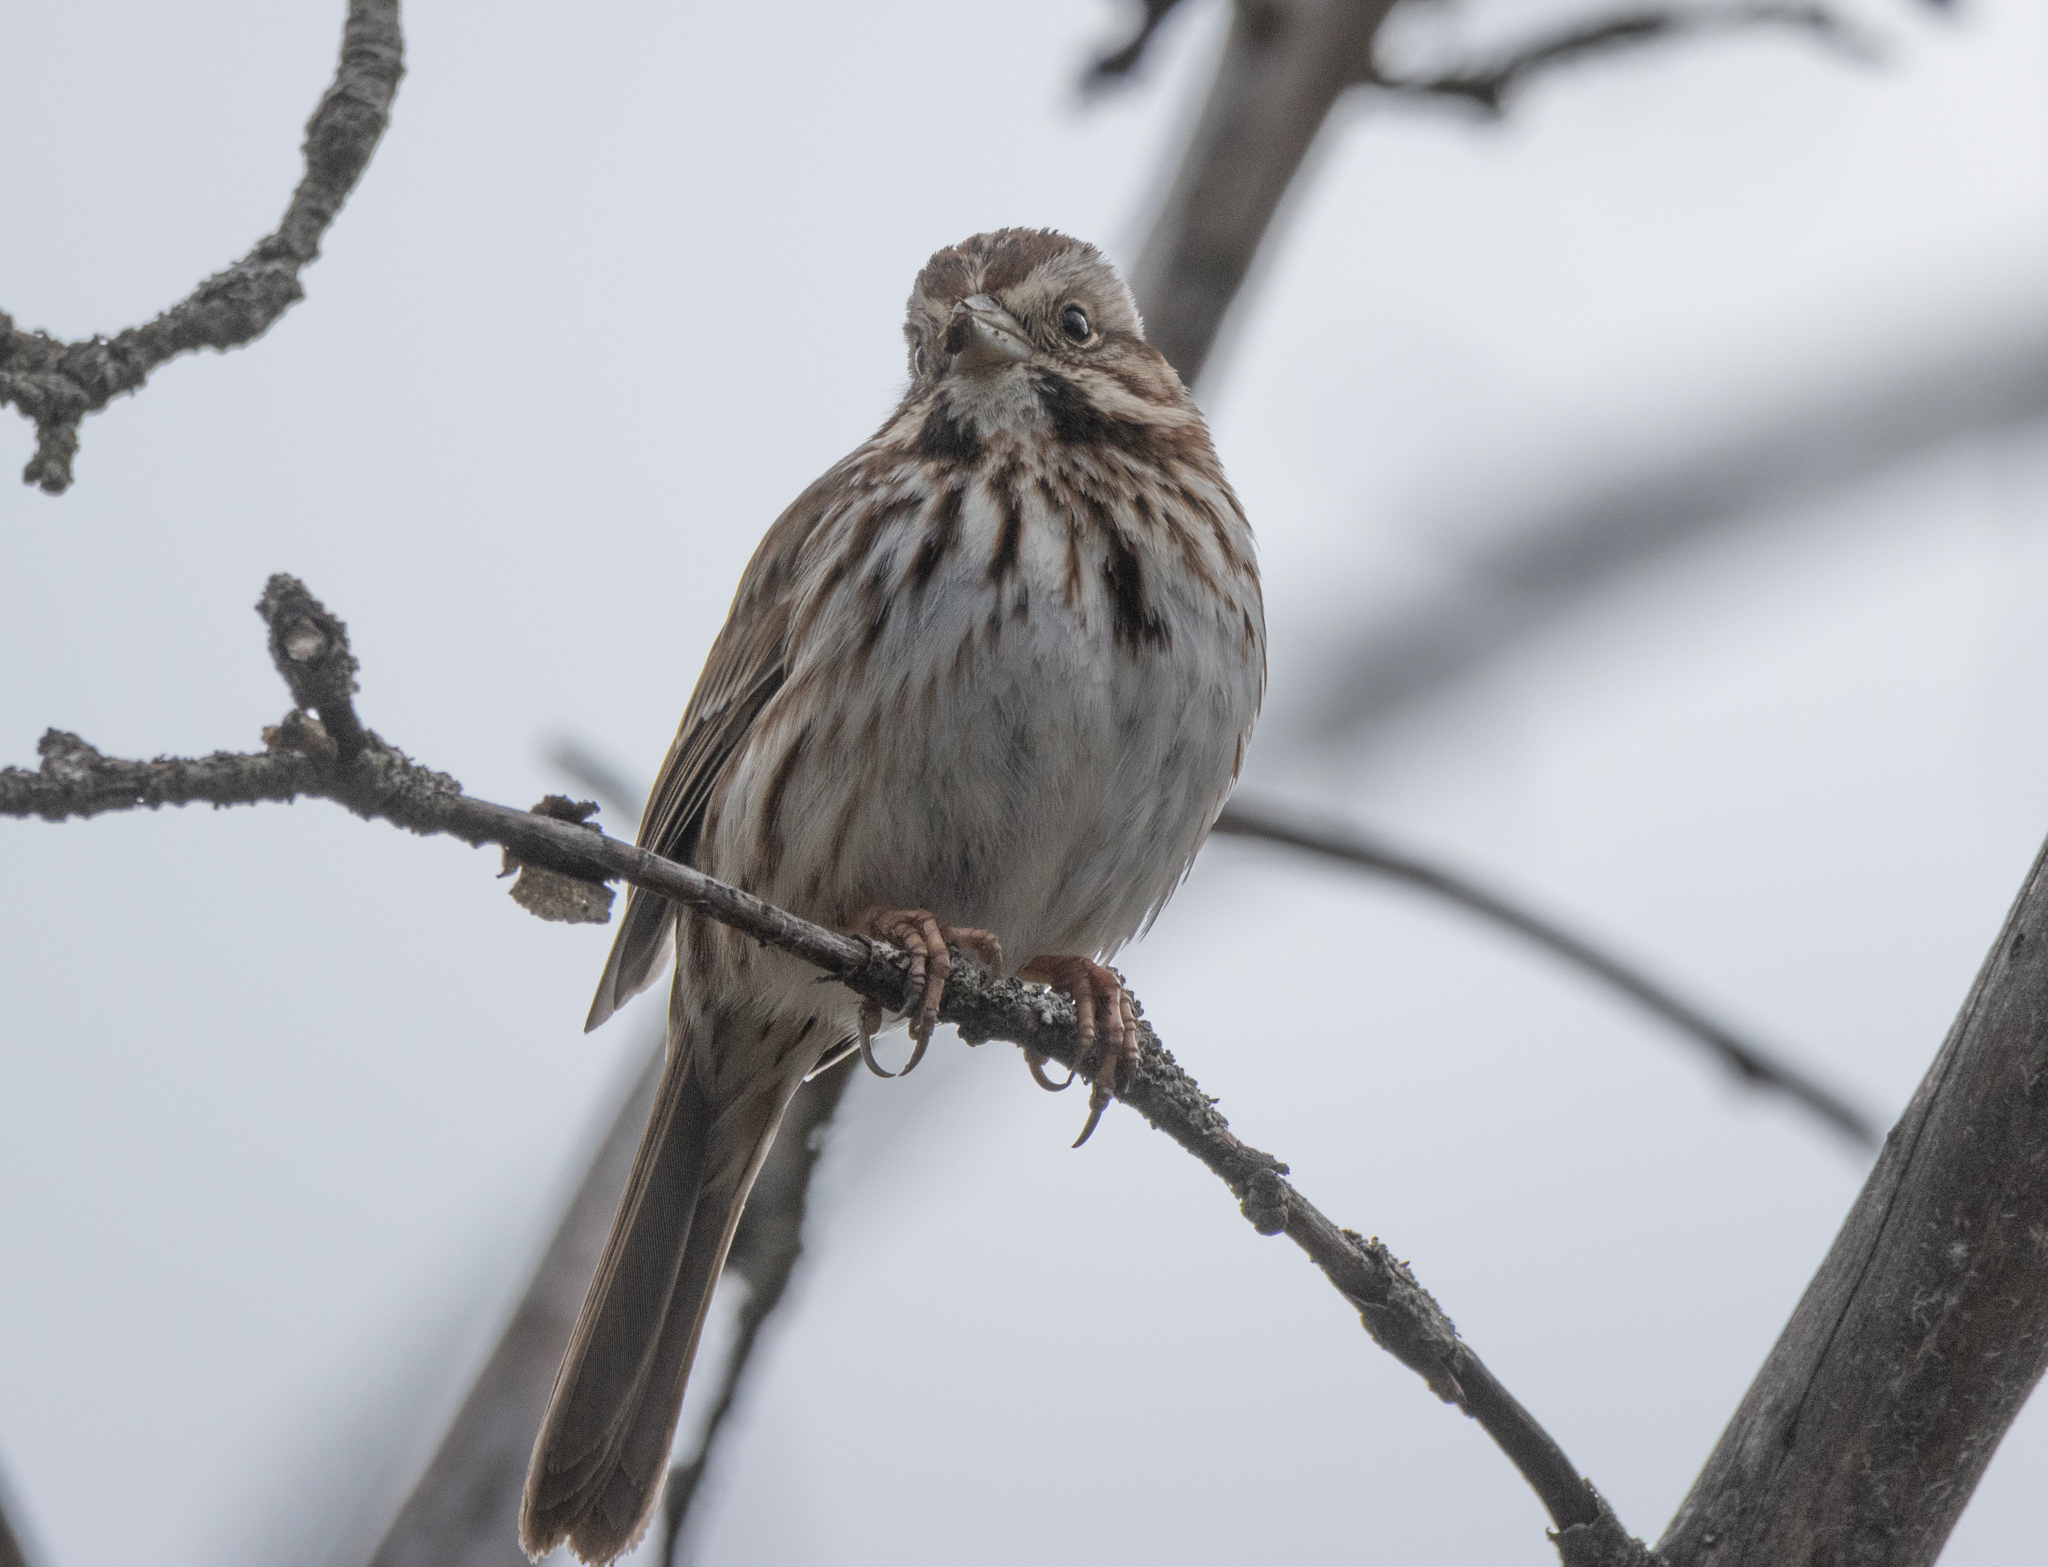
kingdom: Animalia
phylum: Chordata
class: Aves
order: Passeriformes
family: Passerellidae
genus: Melospiza
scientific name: Melospiza melodia
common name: Song sparrow
